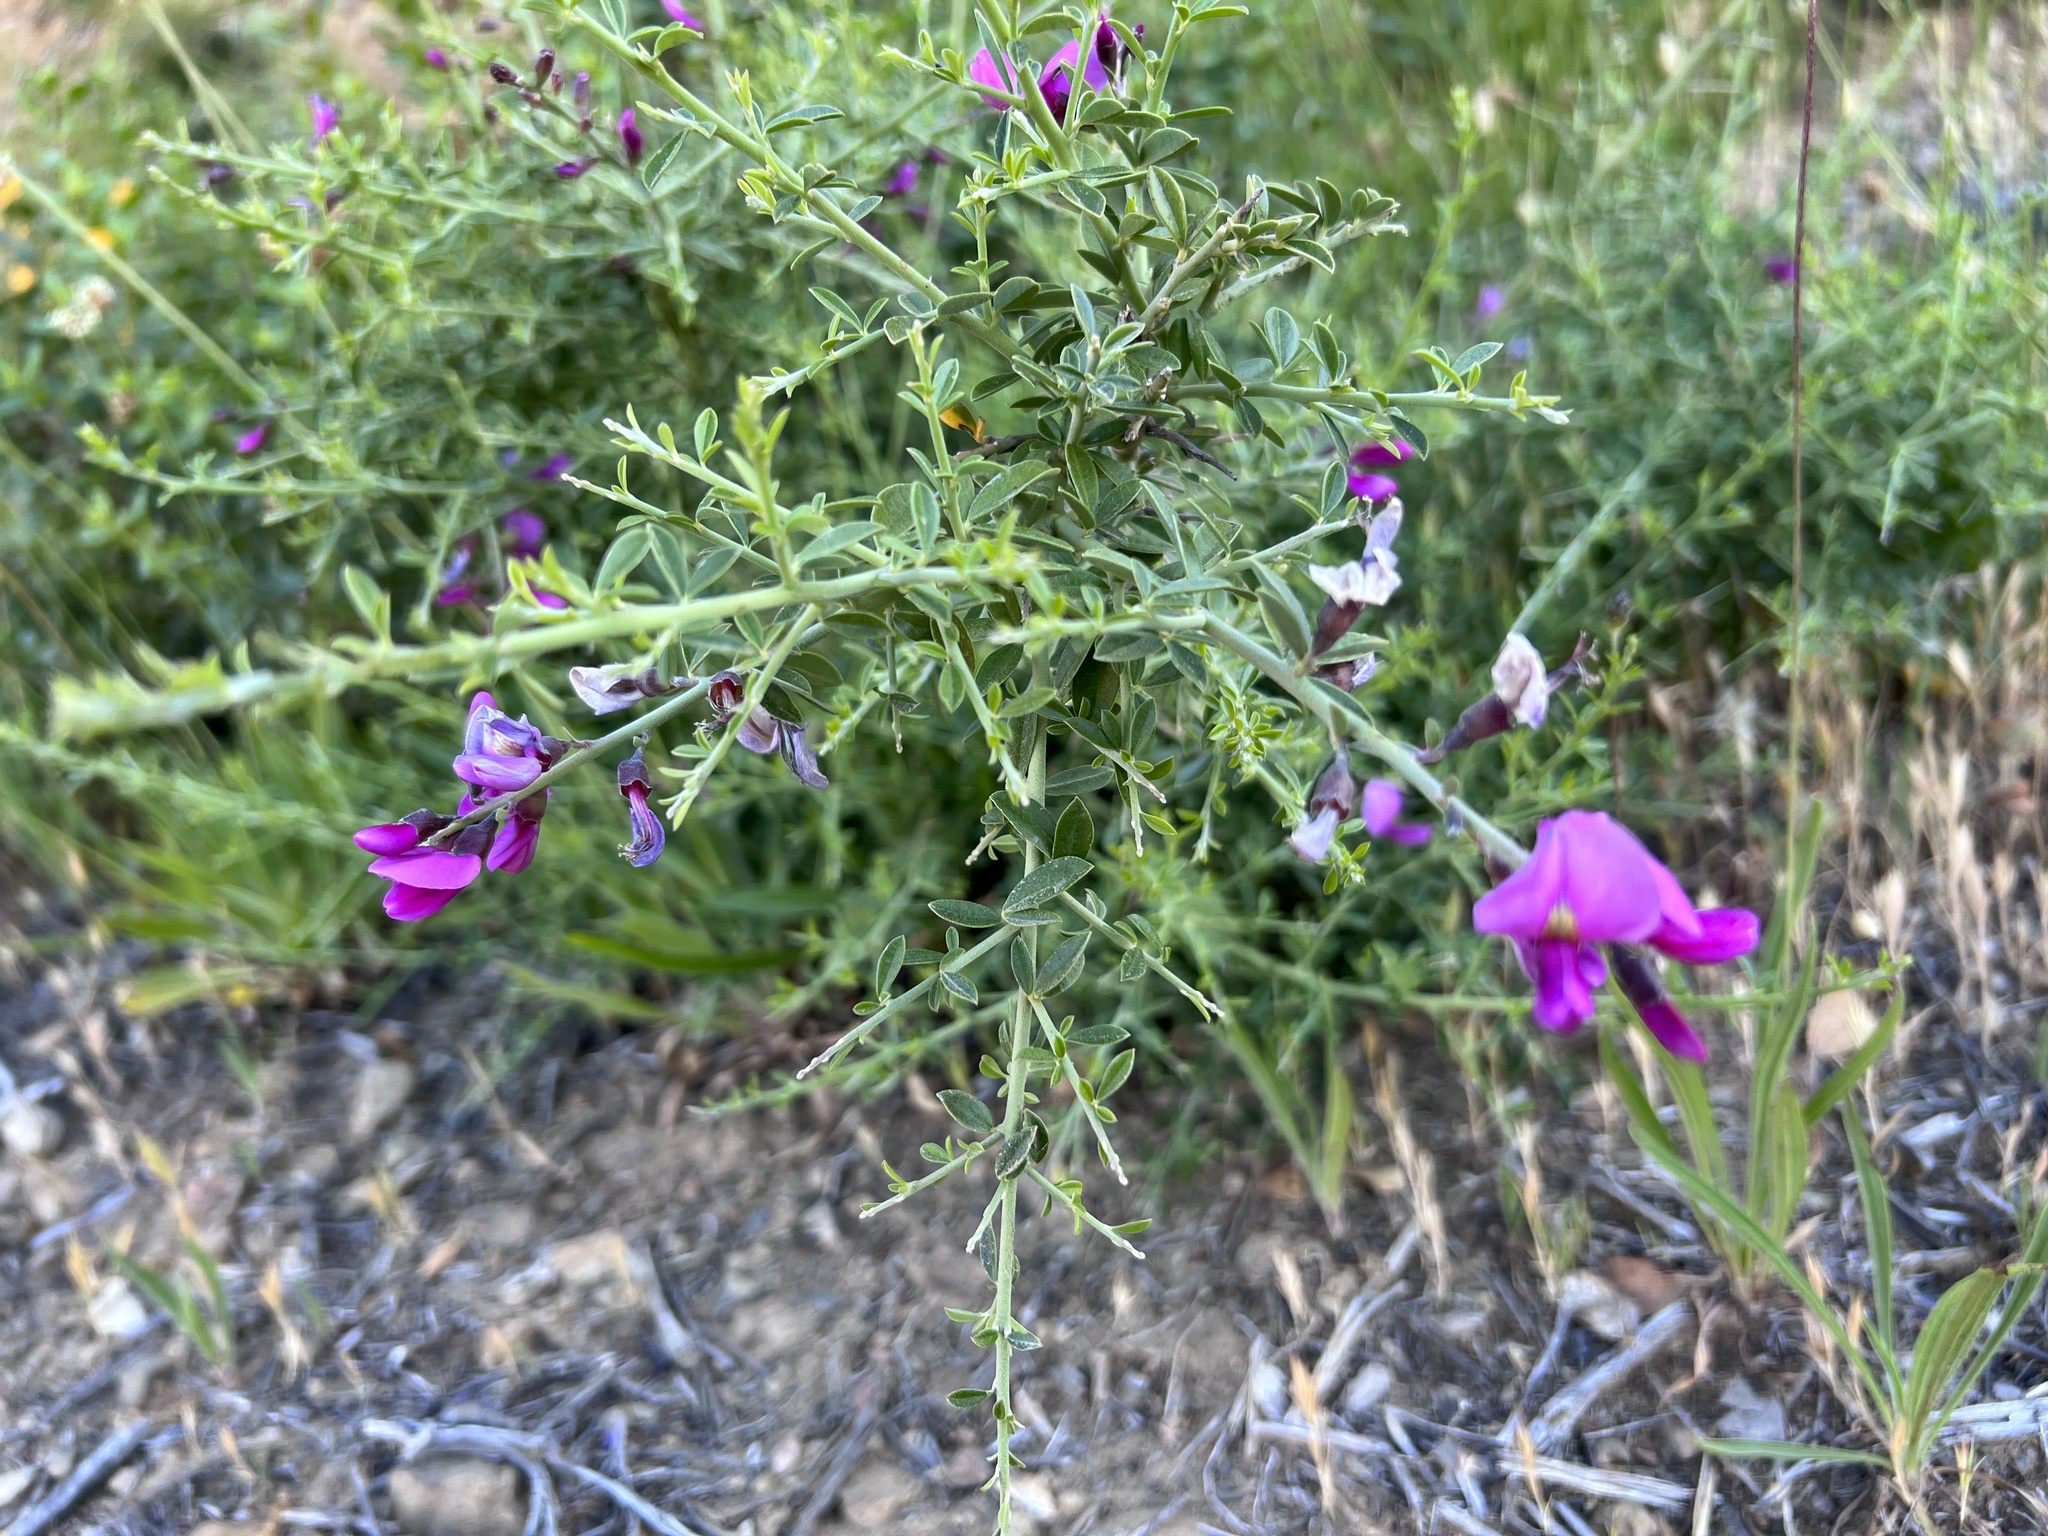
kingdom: Plantae
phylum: Tracheophyta
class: Magnoliopsida
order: Fabales
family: Fabaceae
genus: Pickeringia
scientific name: Pickeringia montana
